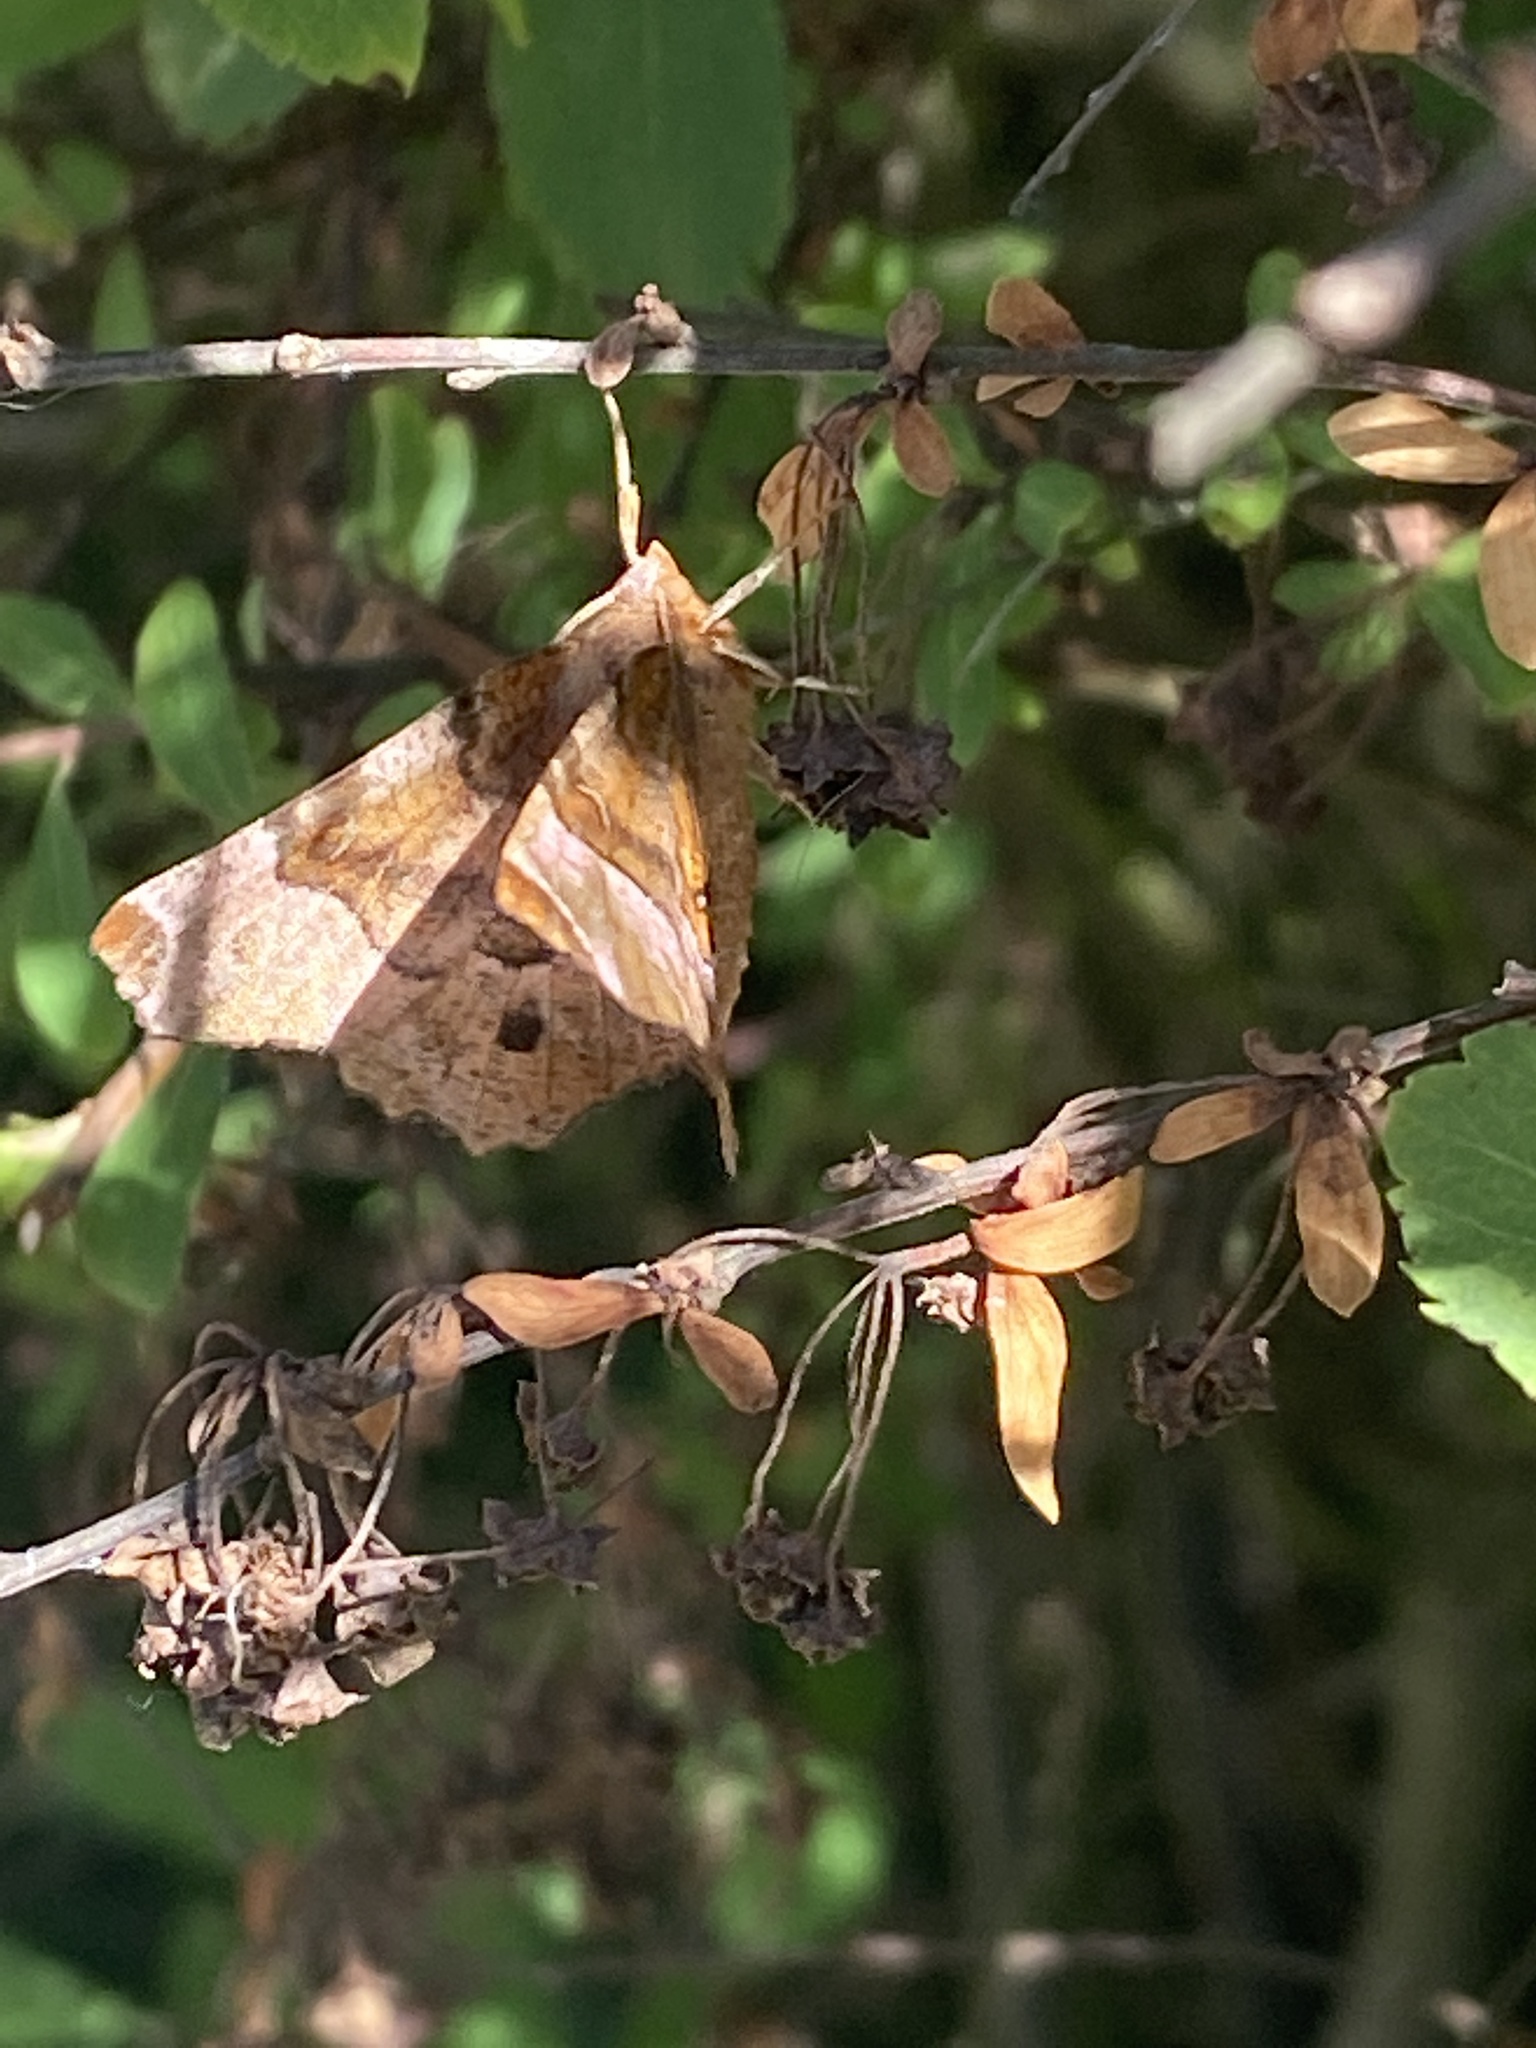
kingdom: Animalia
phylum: Arthropoda
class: Insecta
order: Lepidoptera
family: Geometridae
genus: Selenia
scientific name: Selenia tetralunaria
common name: Purple thorn
